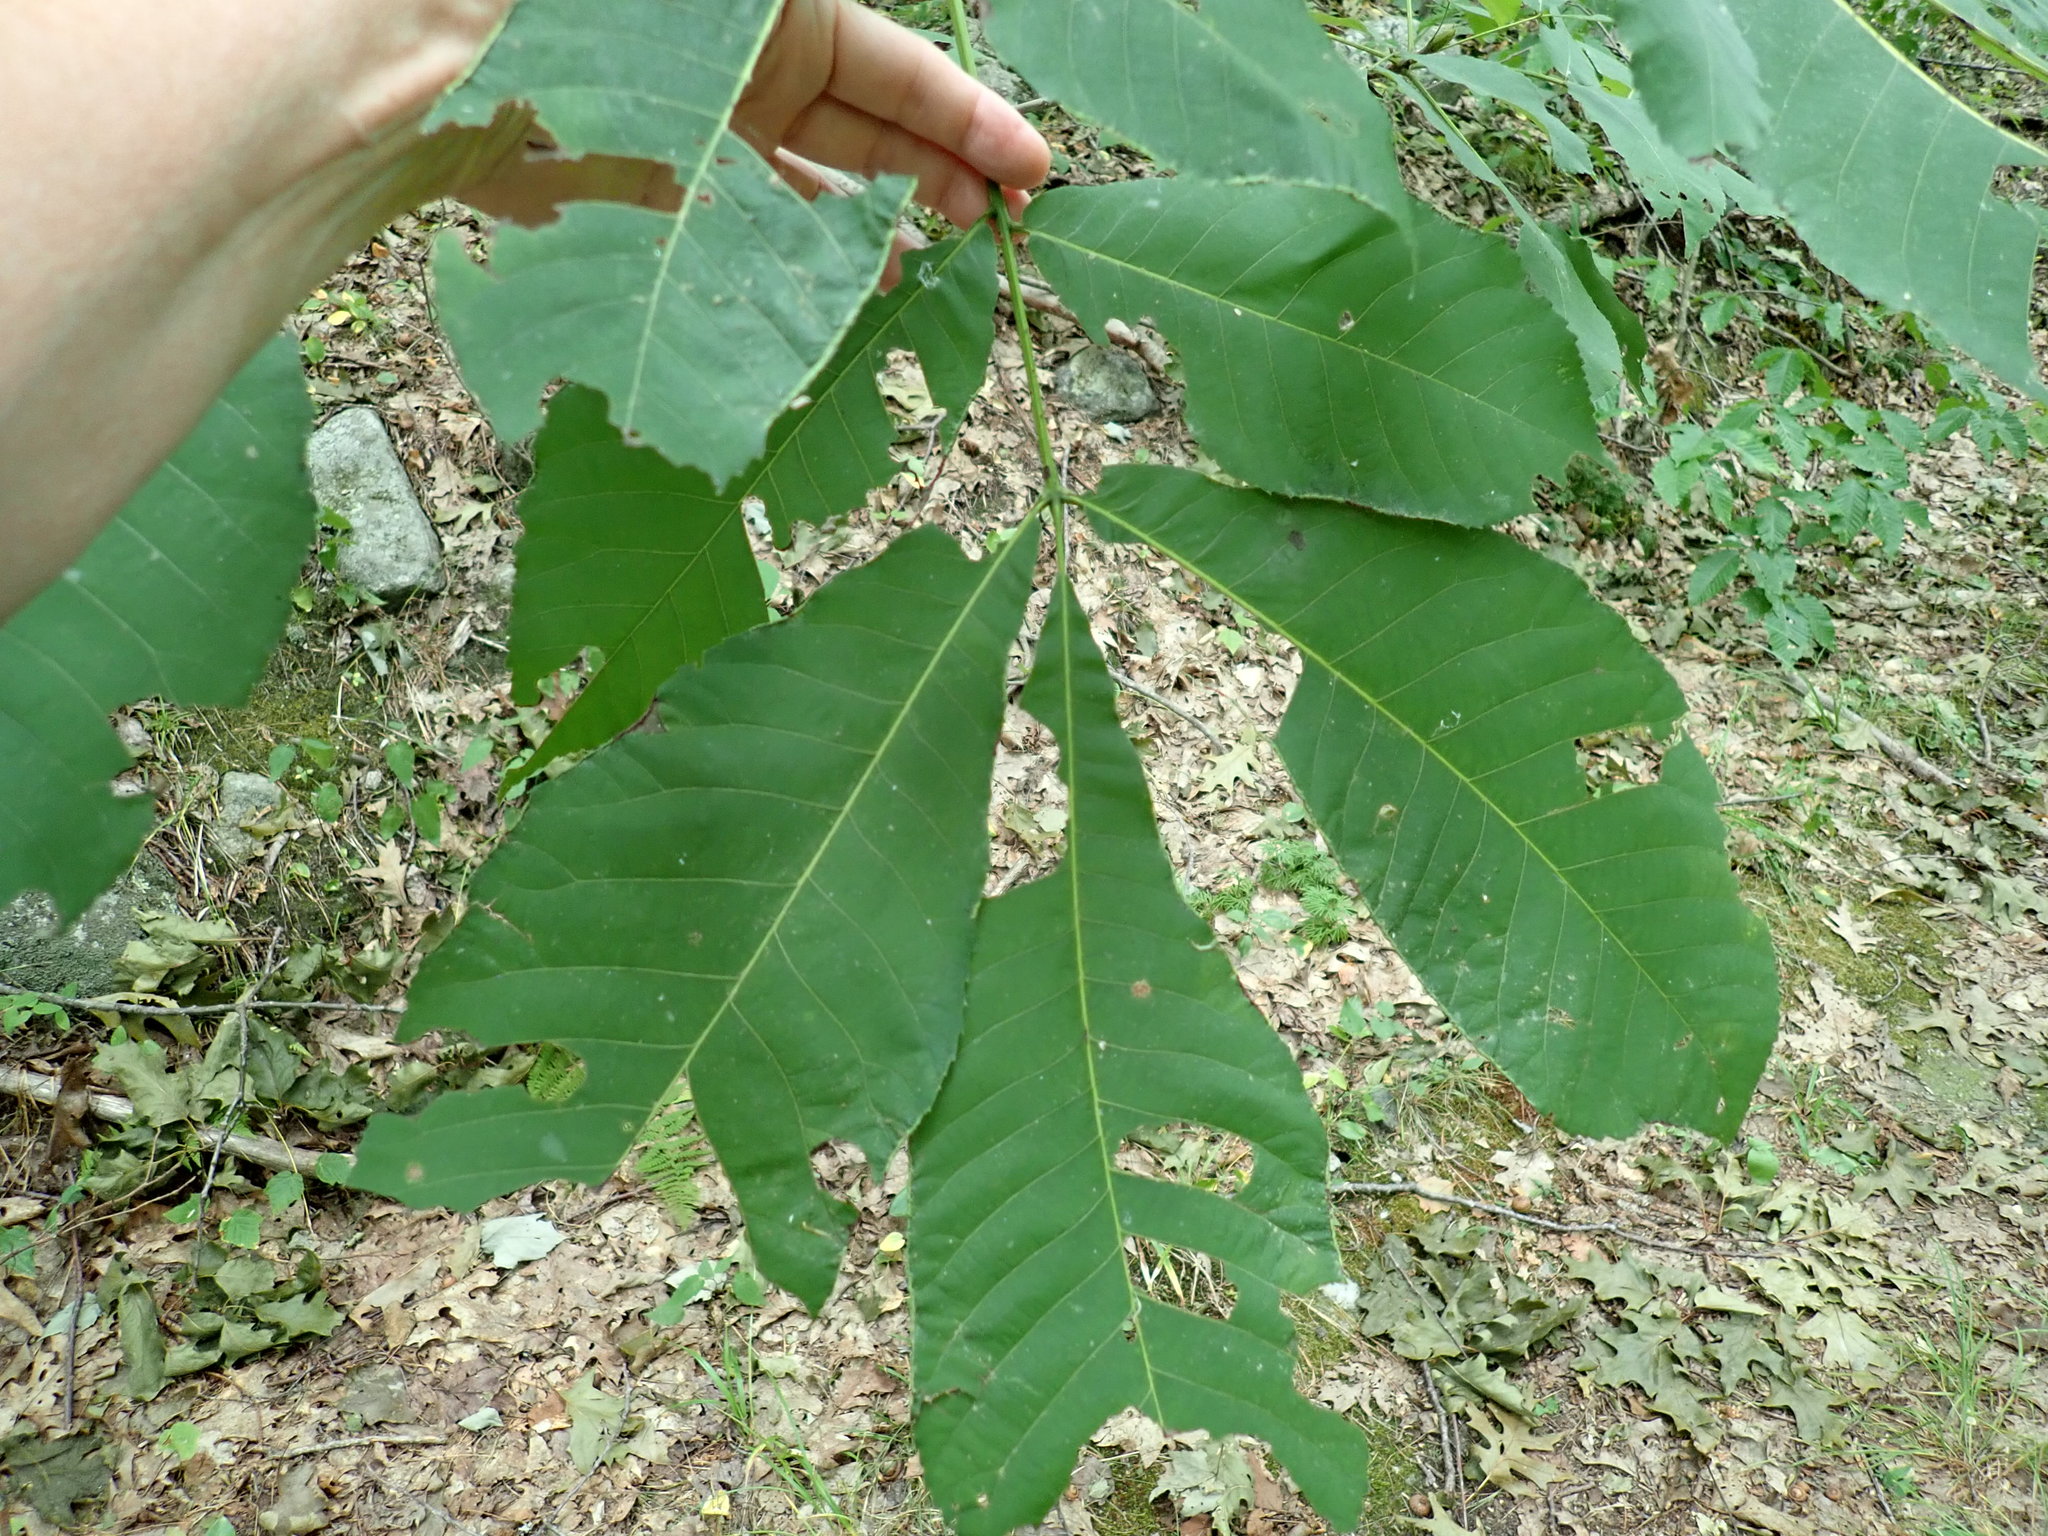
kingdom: Animalia
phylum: Arthropoda
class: Arachnida
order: Trombidiformes
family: Eriophyidae
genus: Aceria
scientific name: Aceria carlinae
